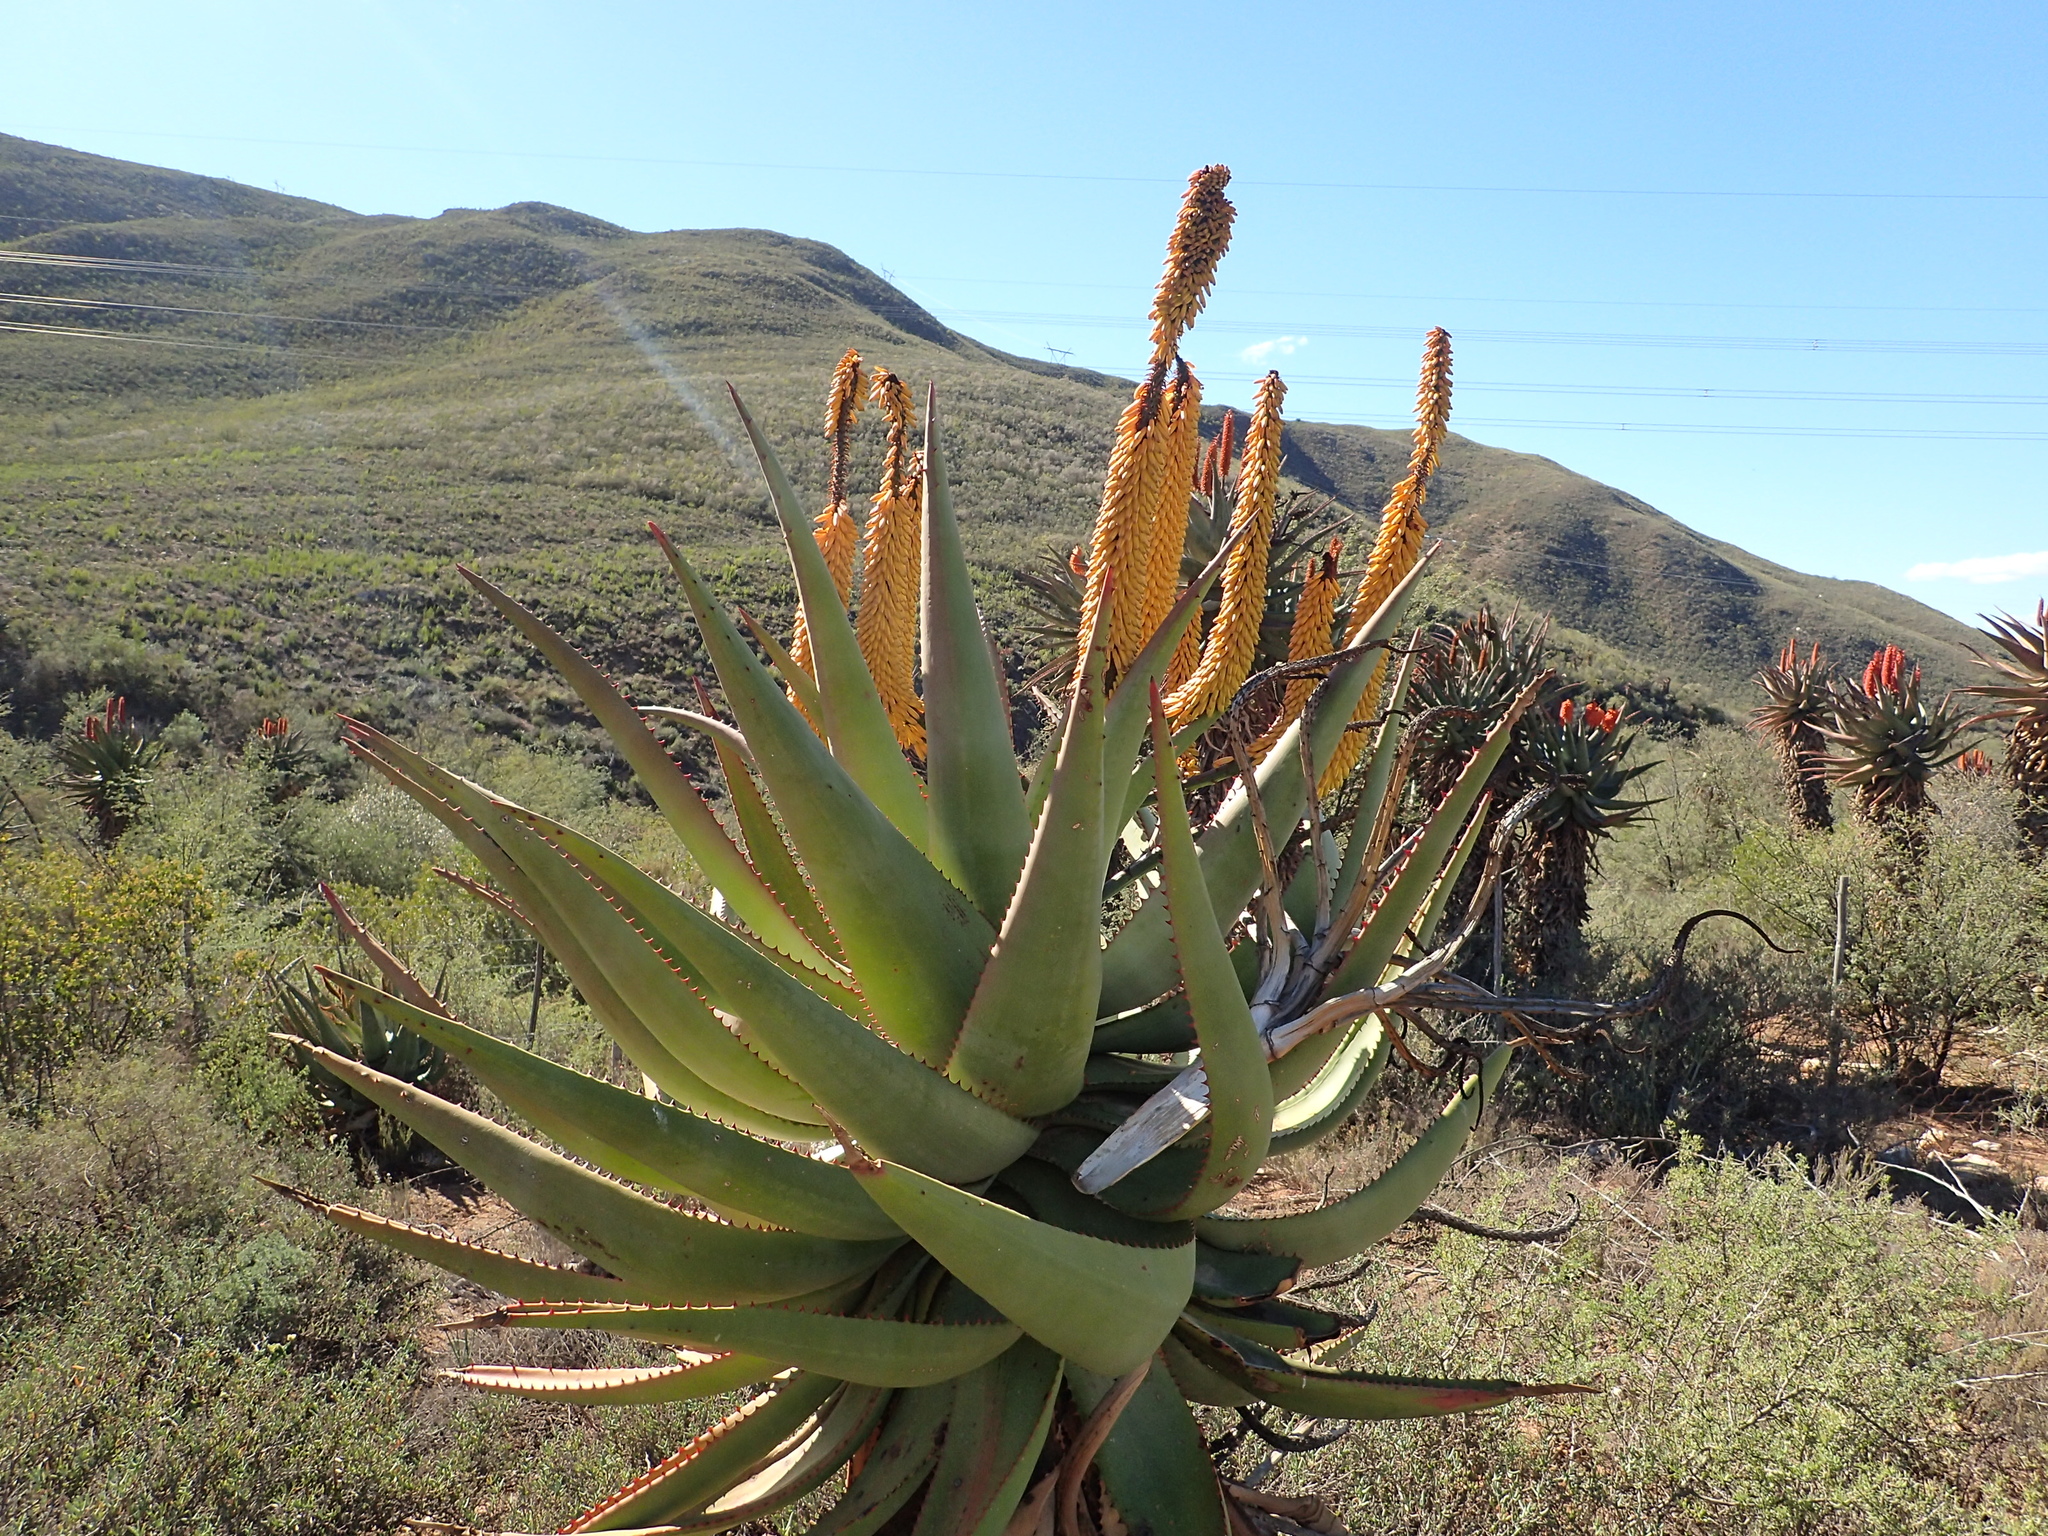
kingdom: Plantae
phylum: Tracheophyta
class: Liliopsida
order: Asparagales
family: Asphodelaceae
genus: Aloe
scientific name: Aloe ferox
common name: Bitter aloe
